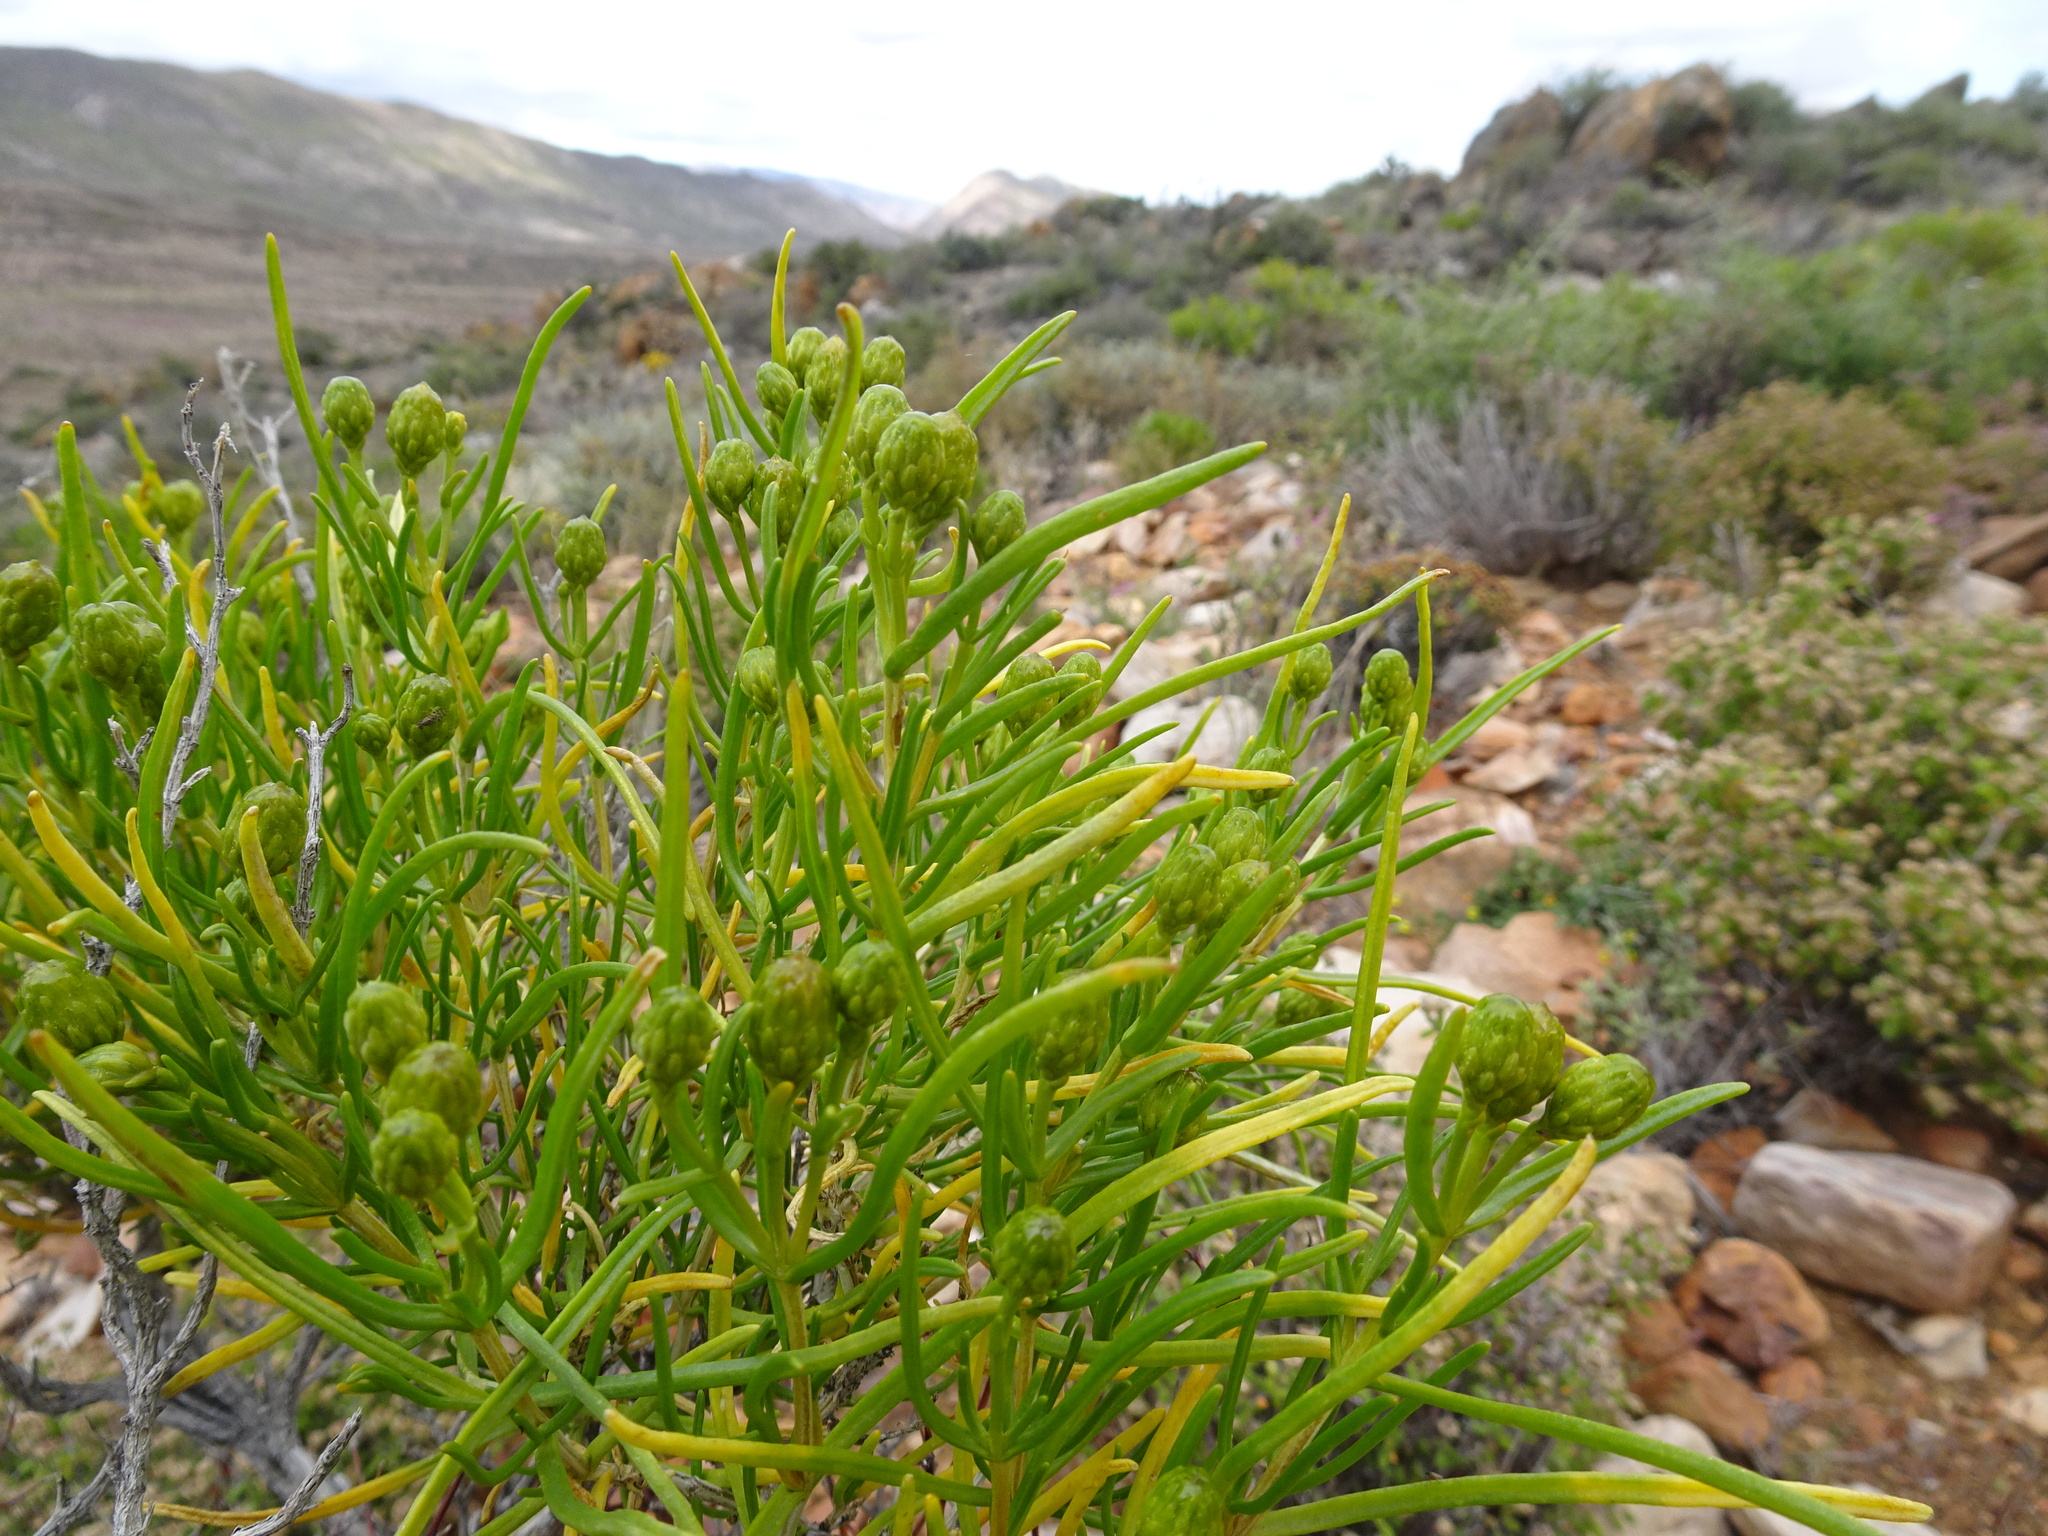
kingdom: Plantae
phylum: Tracheophyta
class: Magnoliopsida
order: Asterales
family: Asteraceae
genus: Pteronia
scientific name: Pteronia pallens
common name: Scholtzbush
